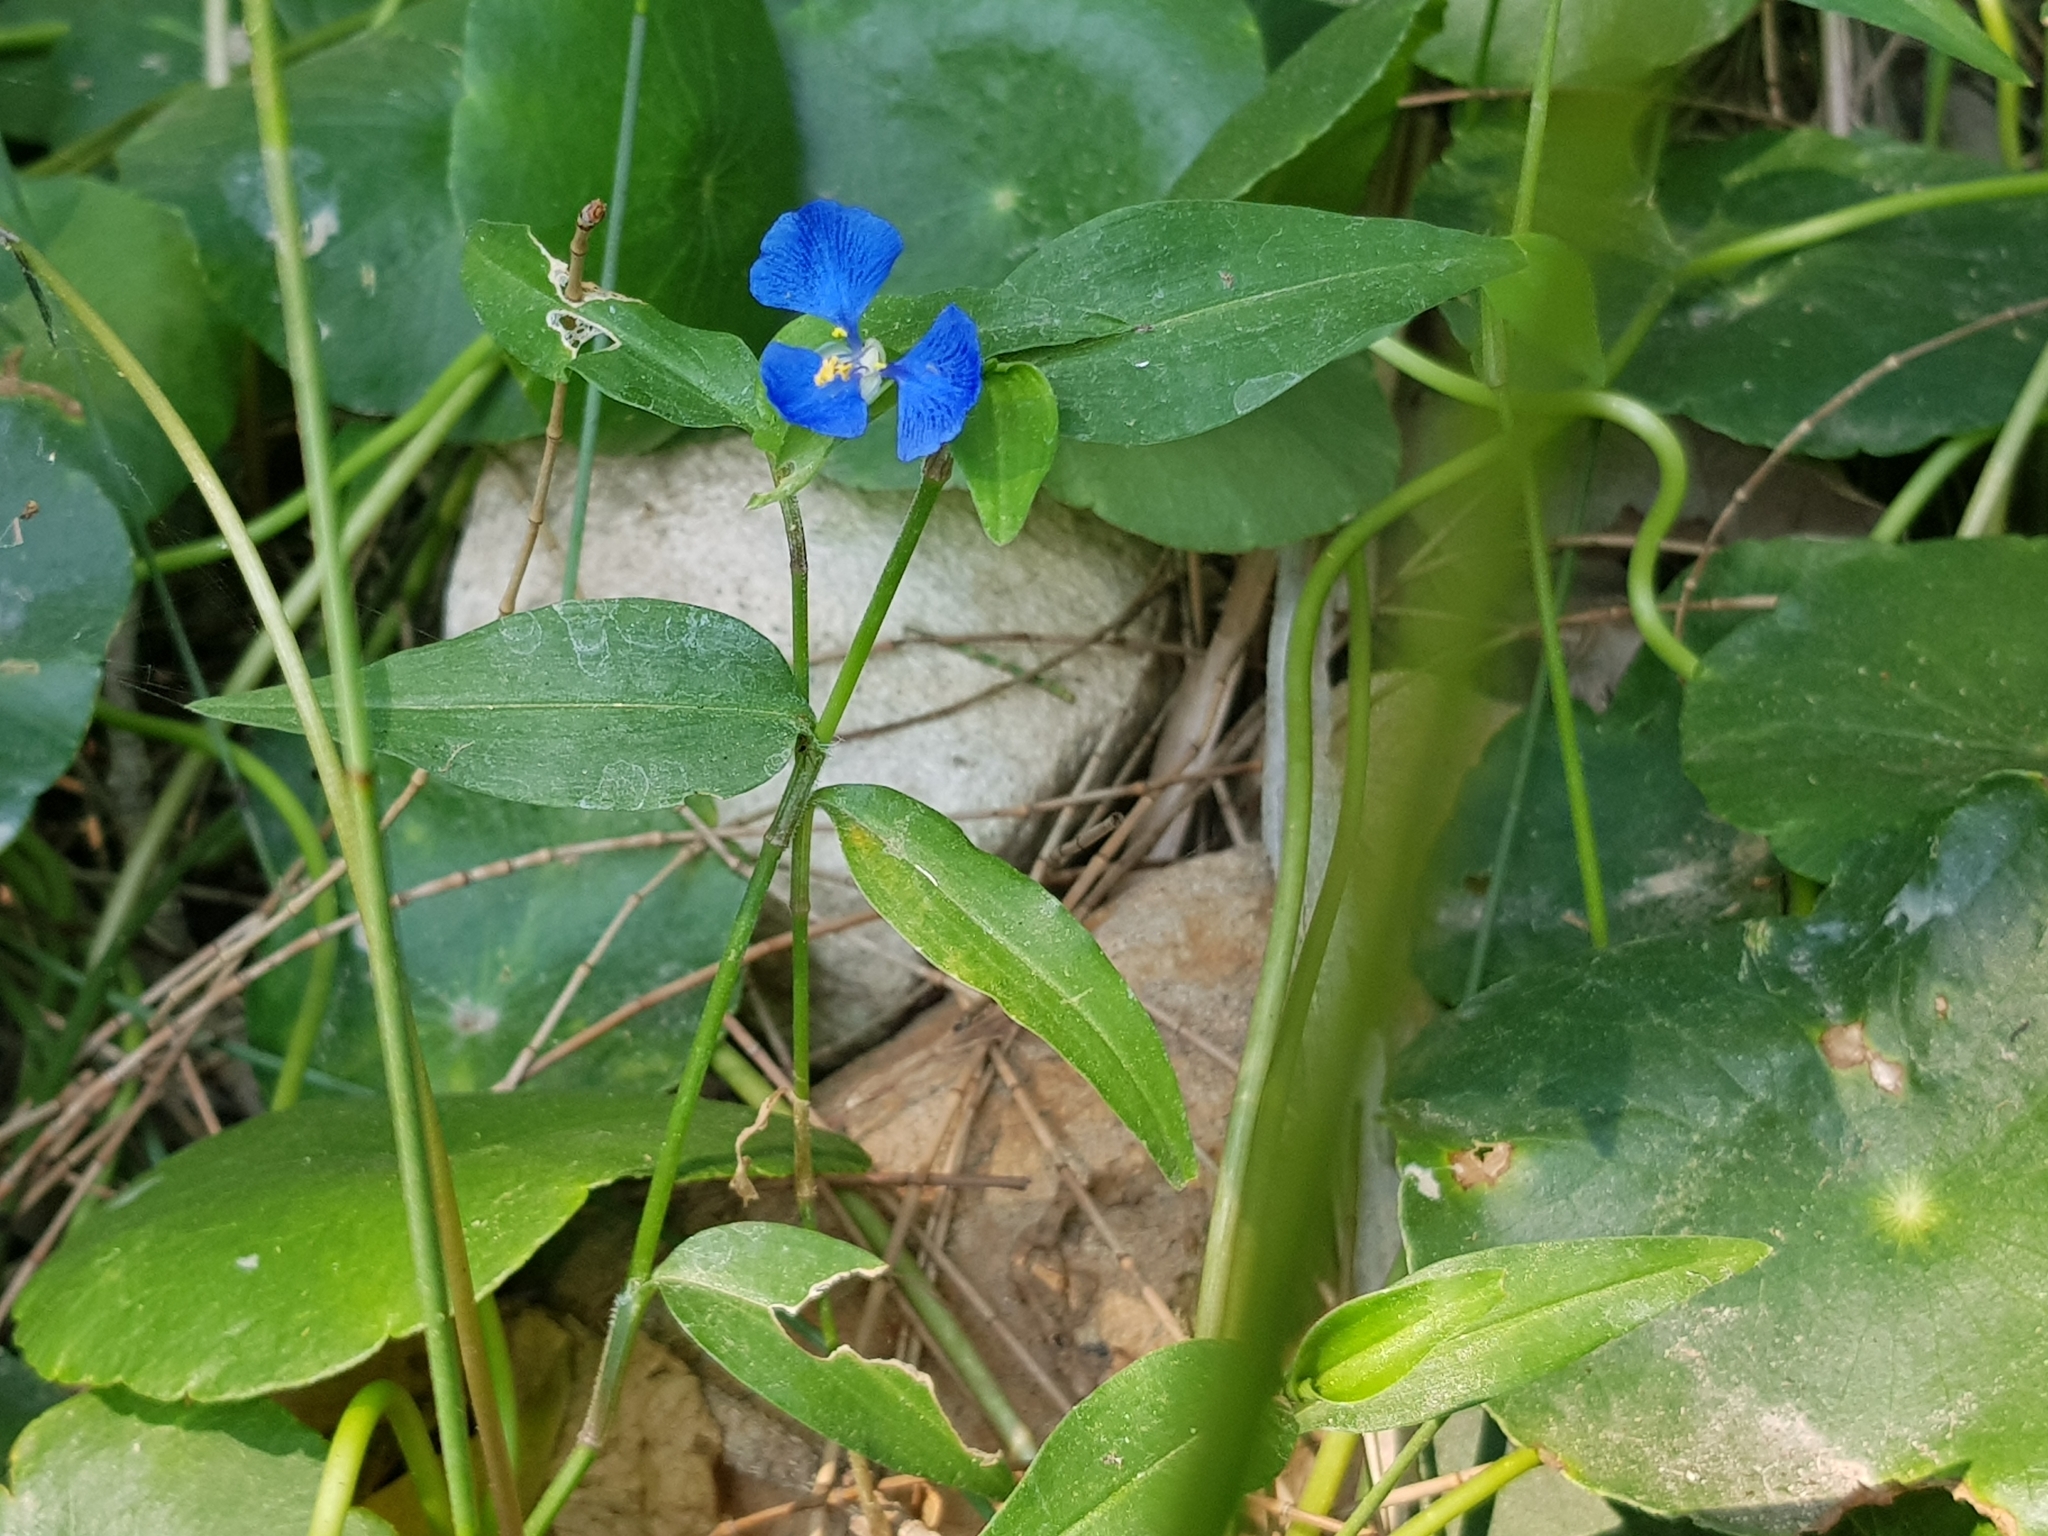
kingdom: Plantae
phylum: Tracheophyta
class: Liliopsida
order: Commelinales
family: Commelinaceae
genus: Commelina
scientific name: Commelina cyanea
